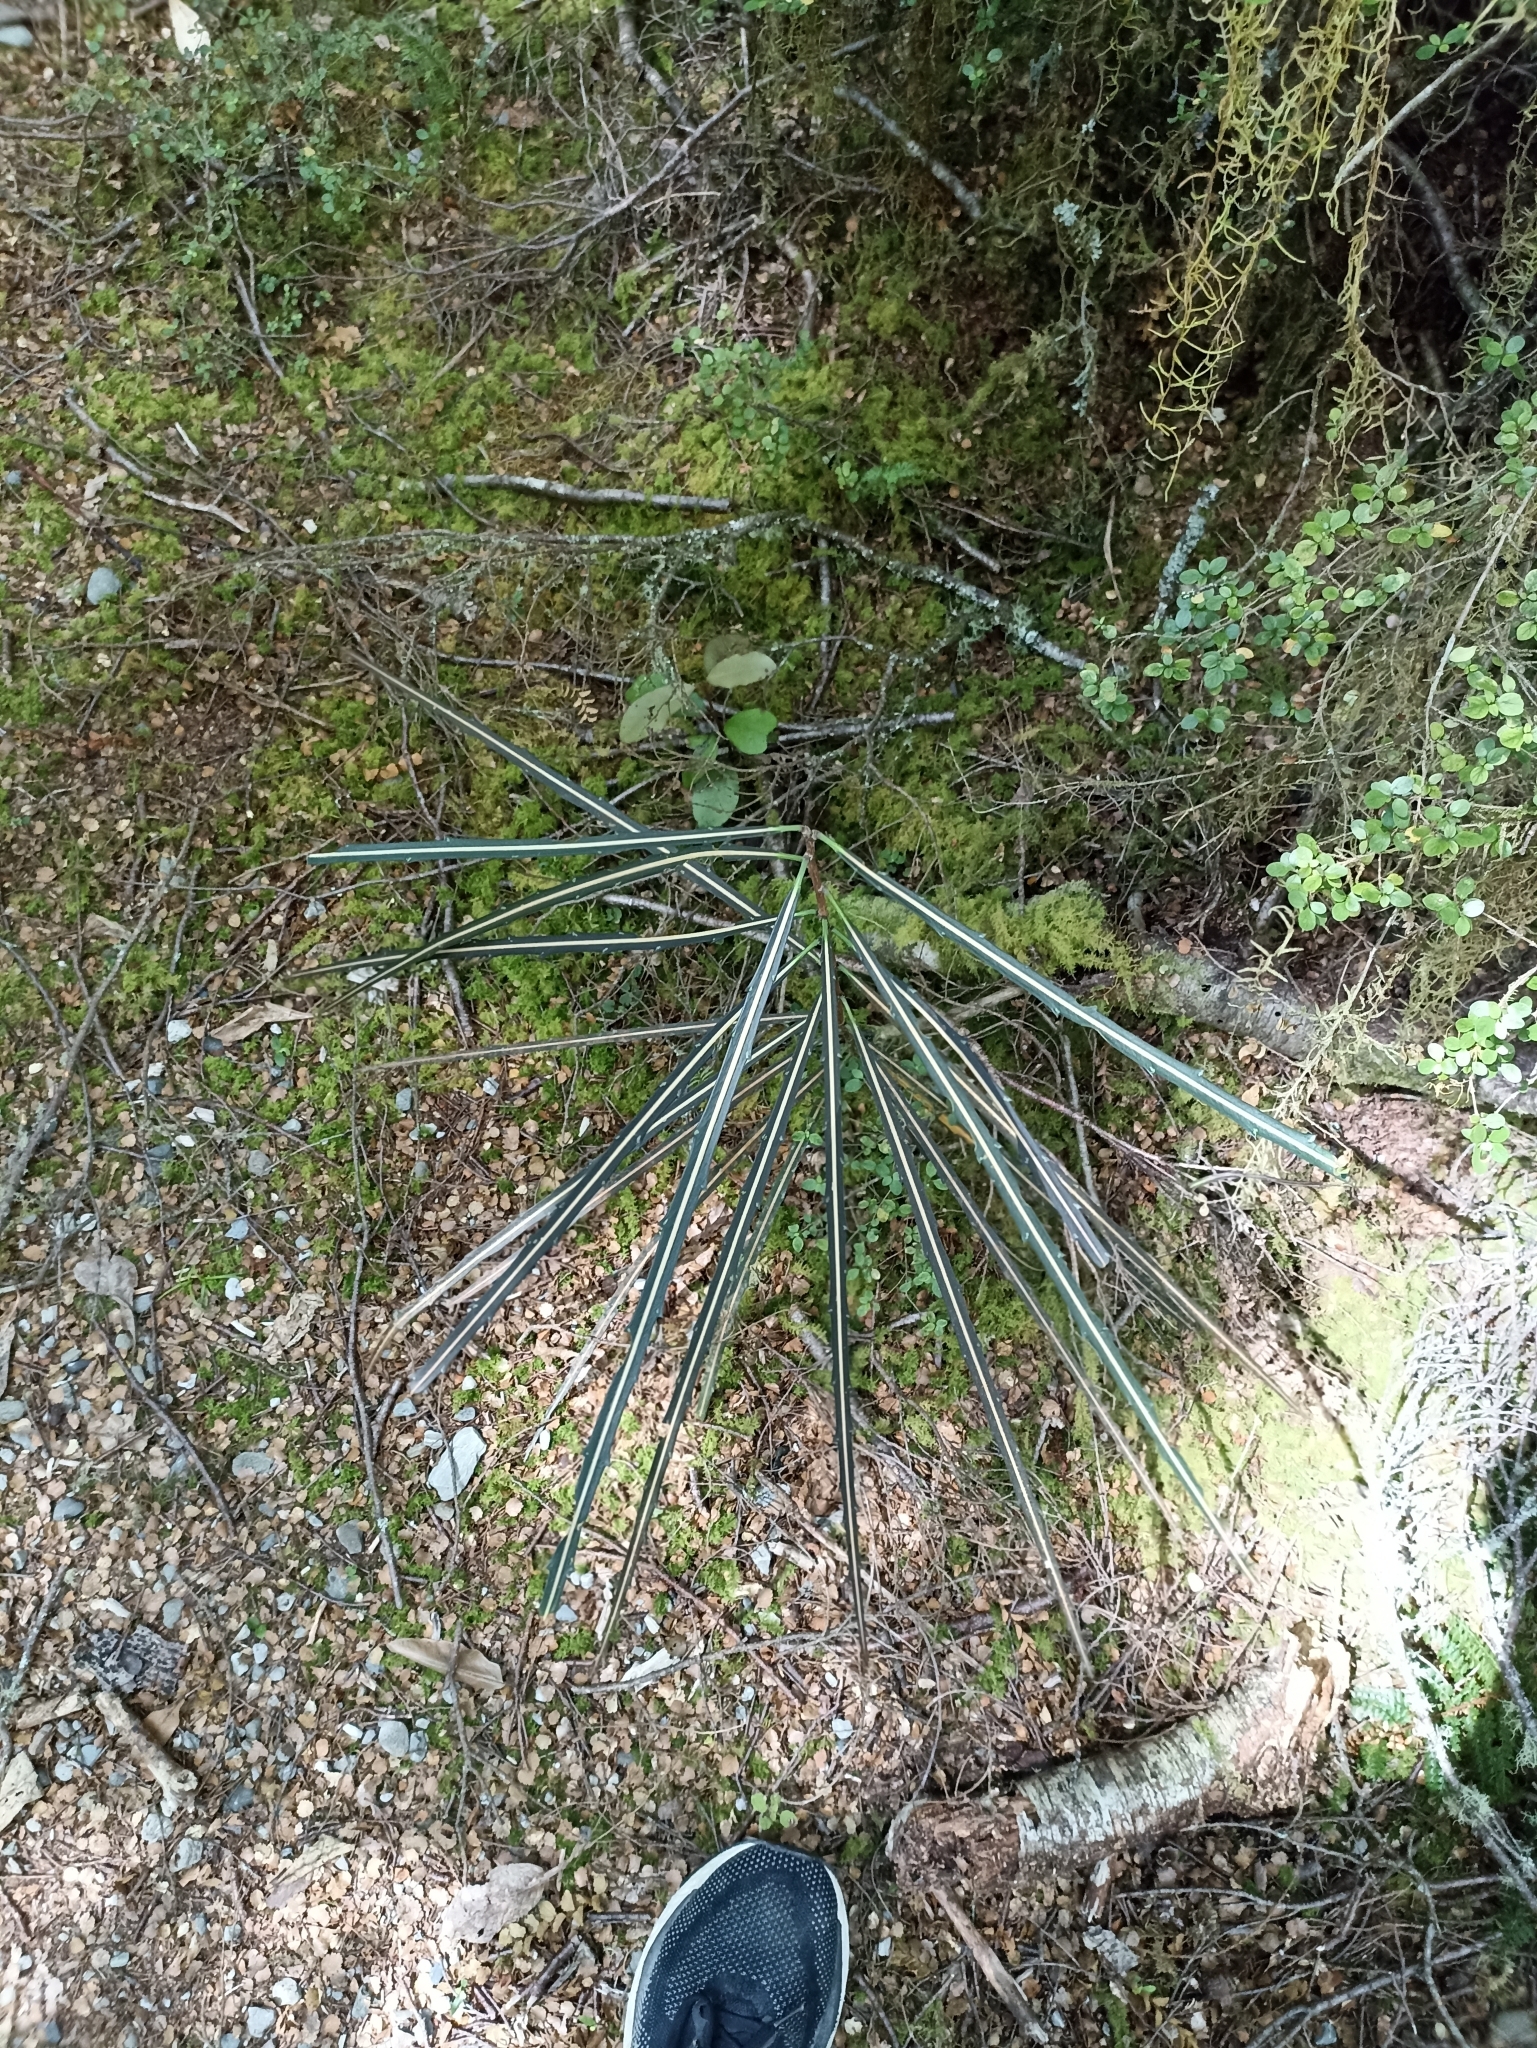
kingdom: Plantae
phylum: Tracheophyta
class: Magnoliopsida
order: Apiales
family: Araliaceae
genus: Pseudopanax
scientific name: Pseudopanax crassifolius
